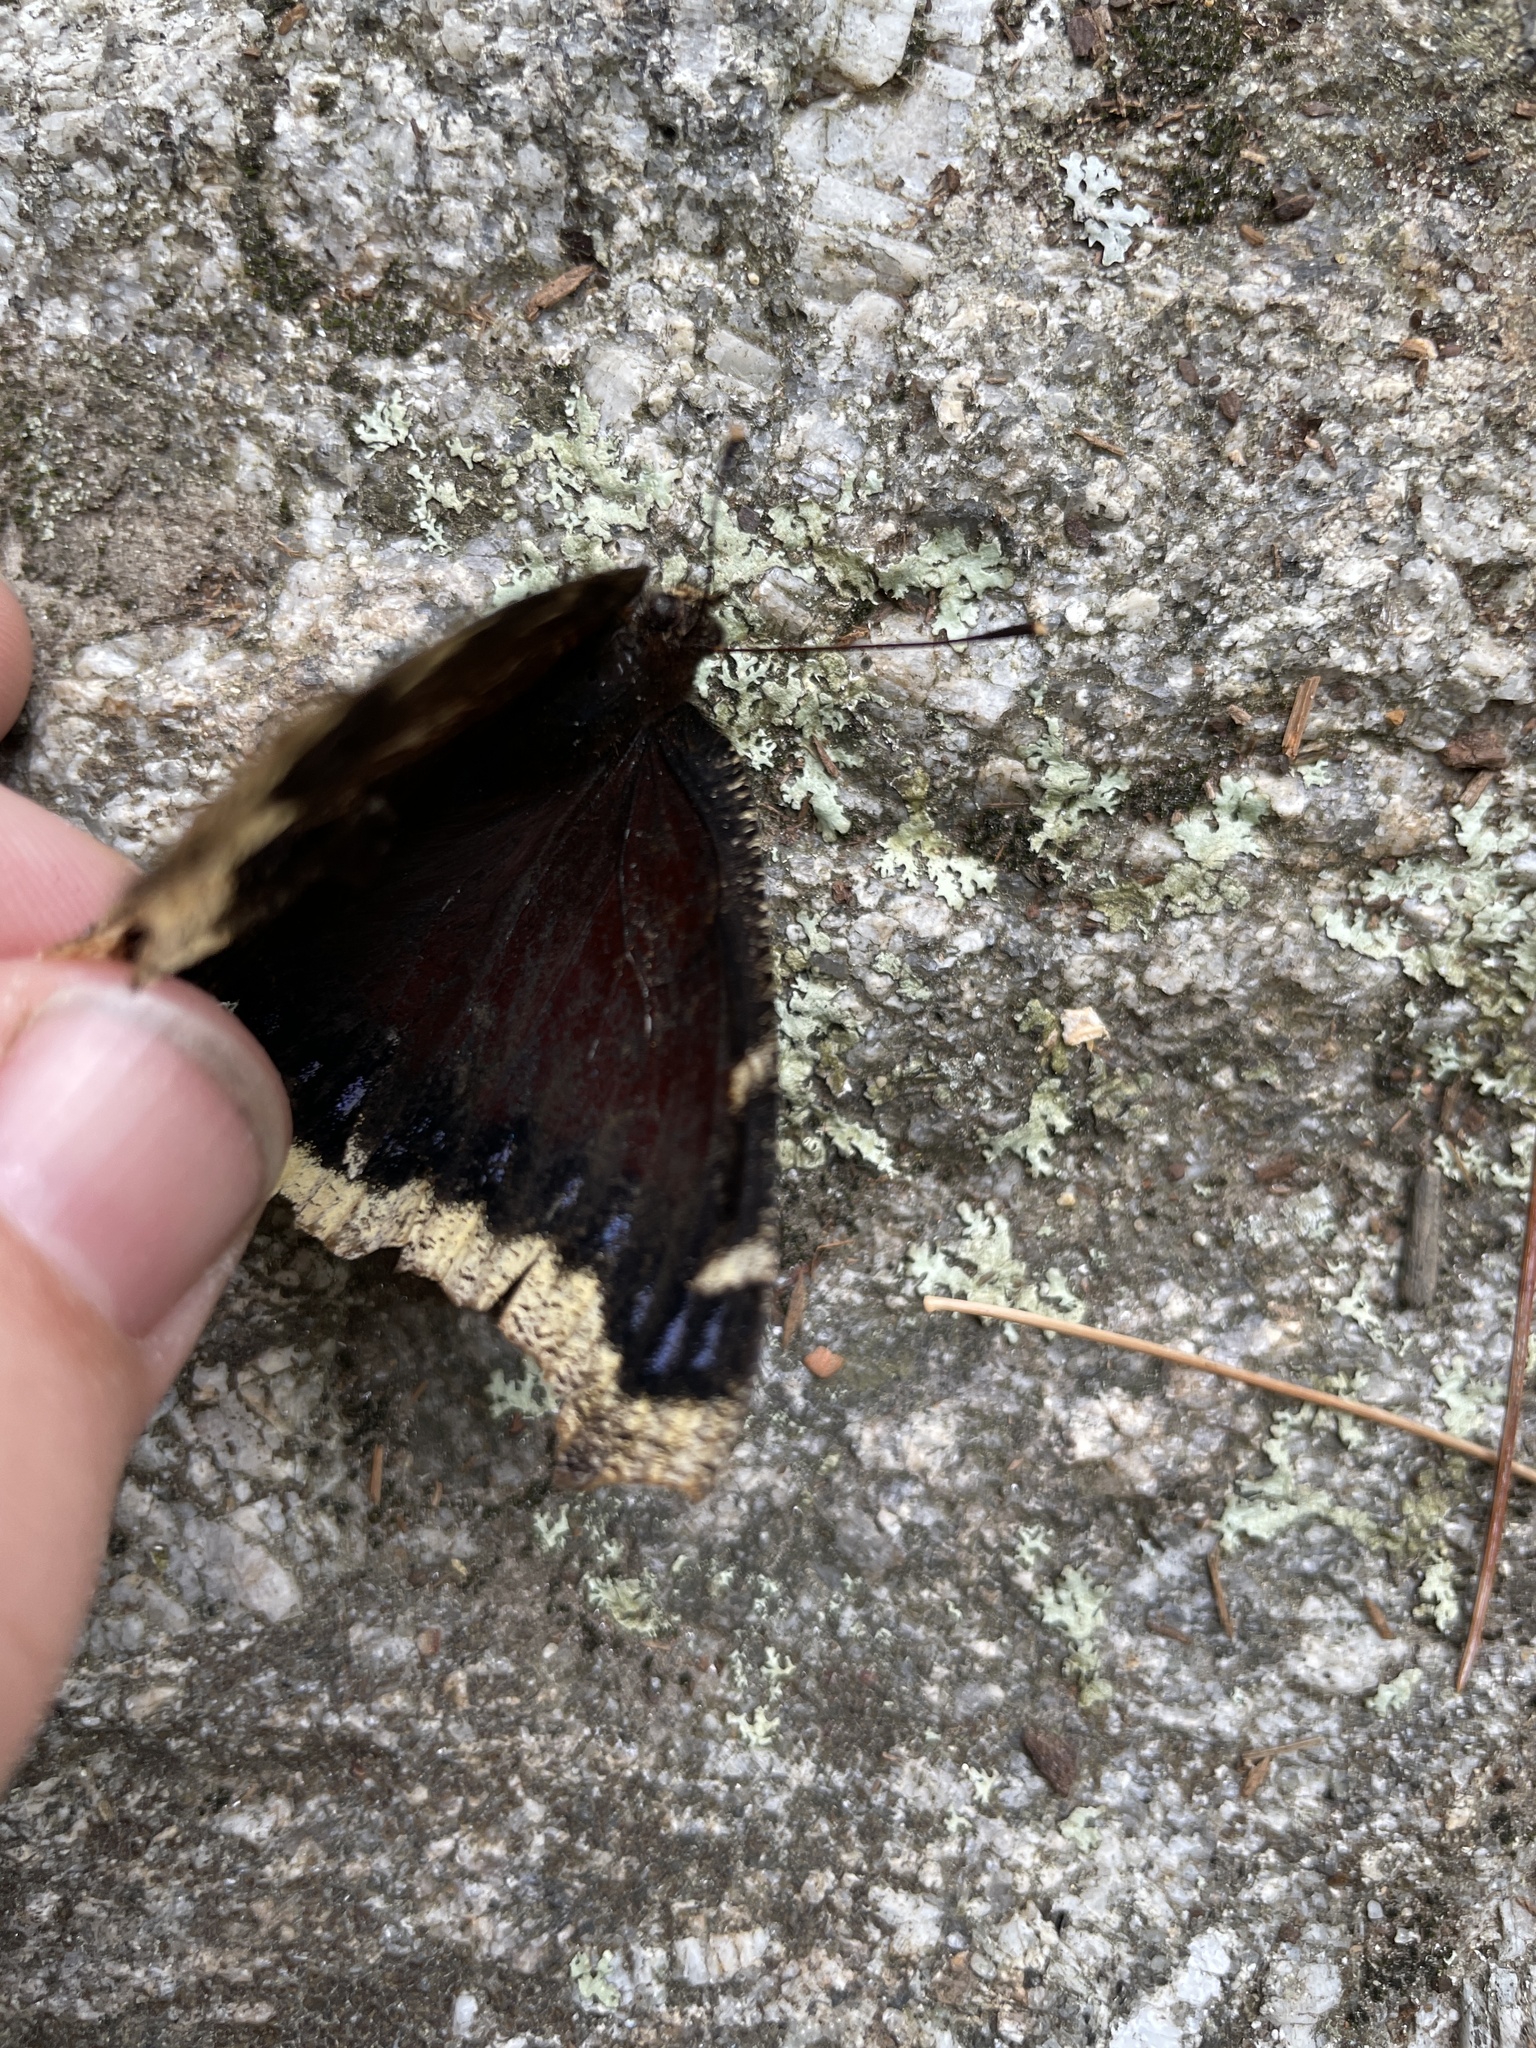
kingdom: Animalia
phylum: Arthropoda
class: Insecta
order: Lepidoptera
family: Nymphalidae
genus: Nymphalis
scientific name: Nymphalis antiopa
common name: Camberwell beauty
